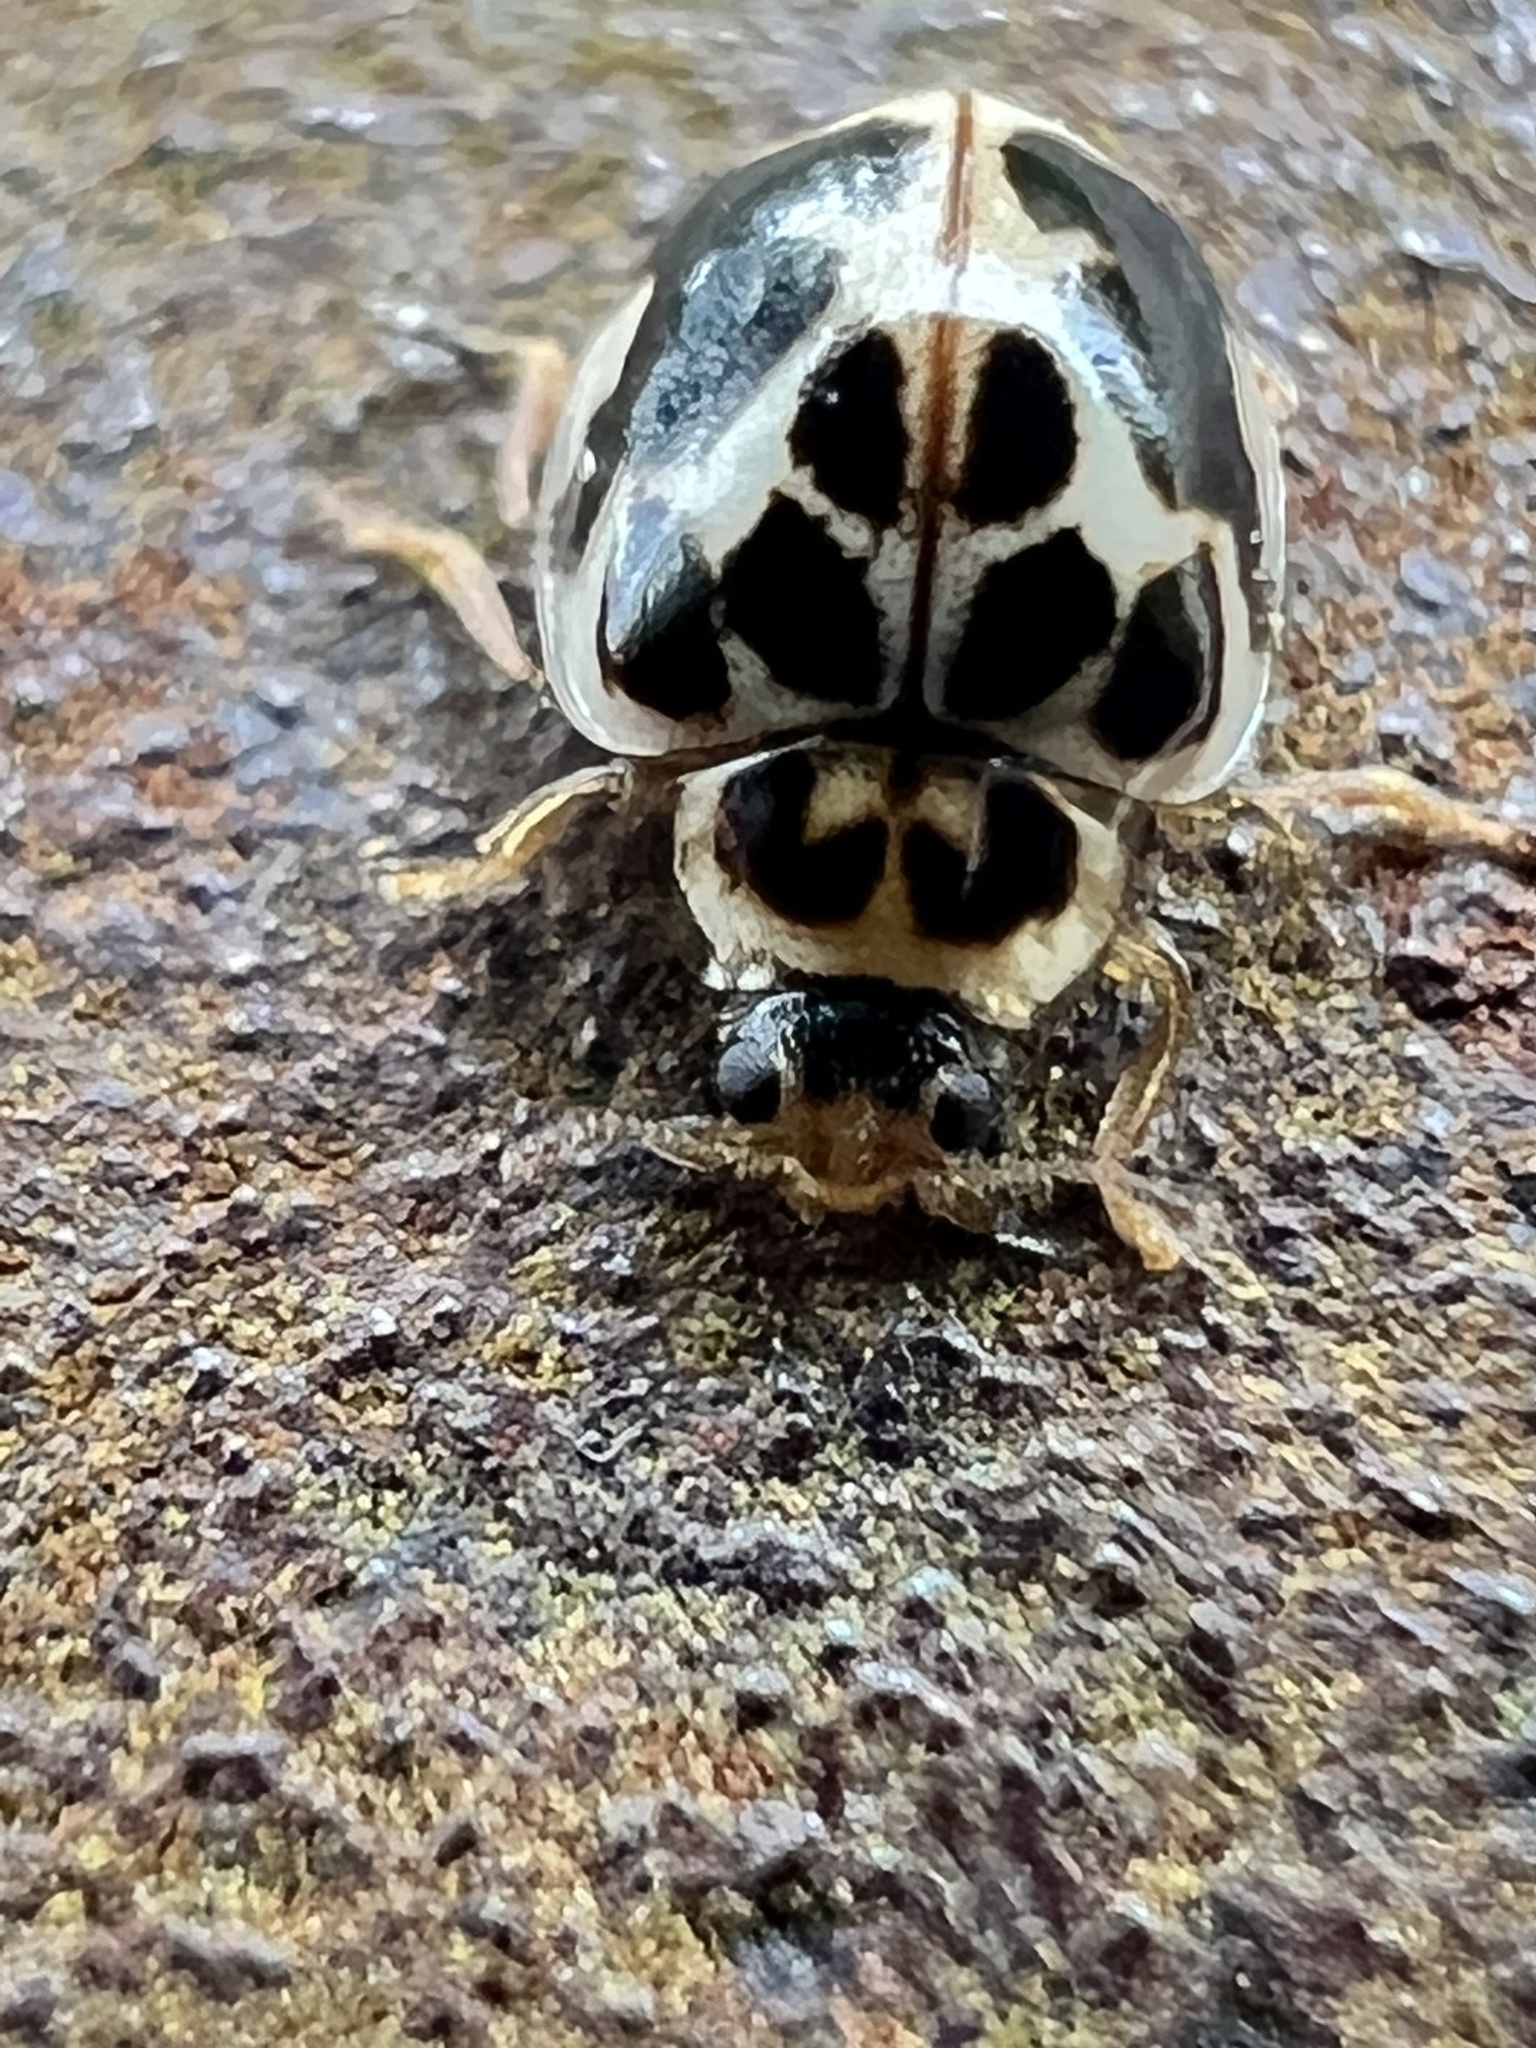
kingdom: Animalia
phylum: Arthropoda
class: Insecta
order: Coleoptera
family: Coccinellidae
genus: Psyllobora
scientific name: Psyllobora vigintimaculata
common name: Ladybird beetle
